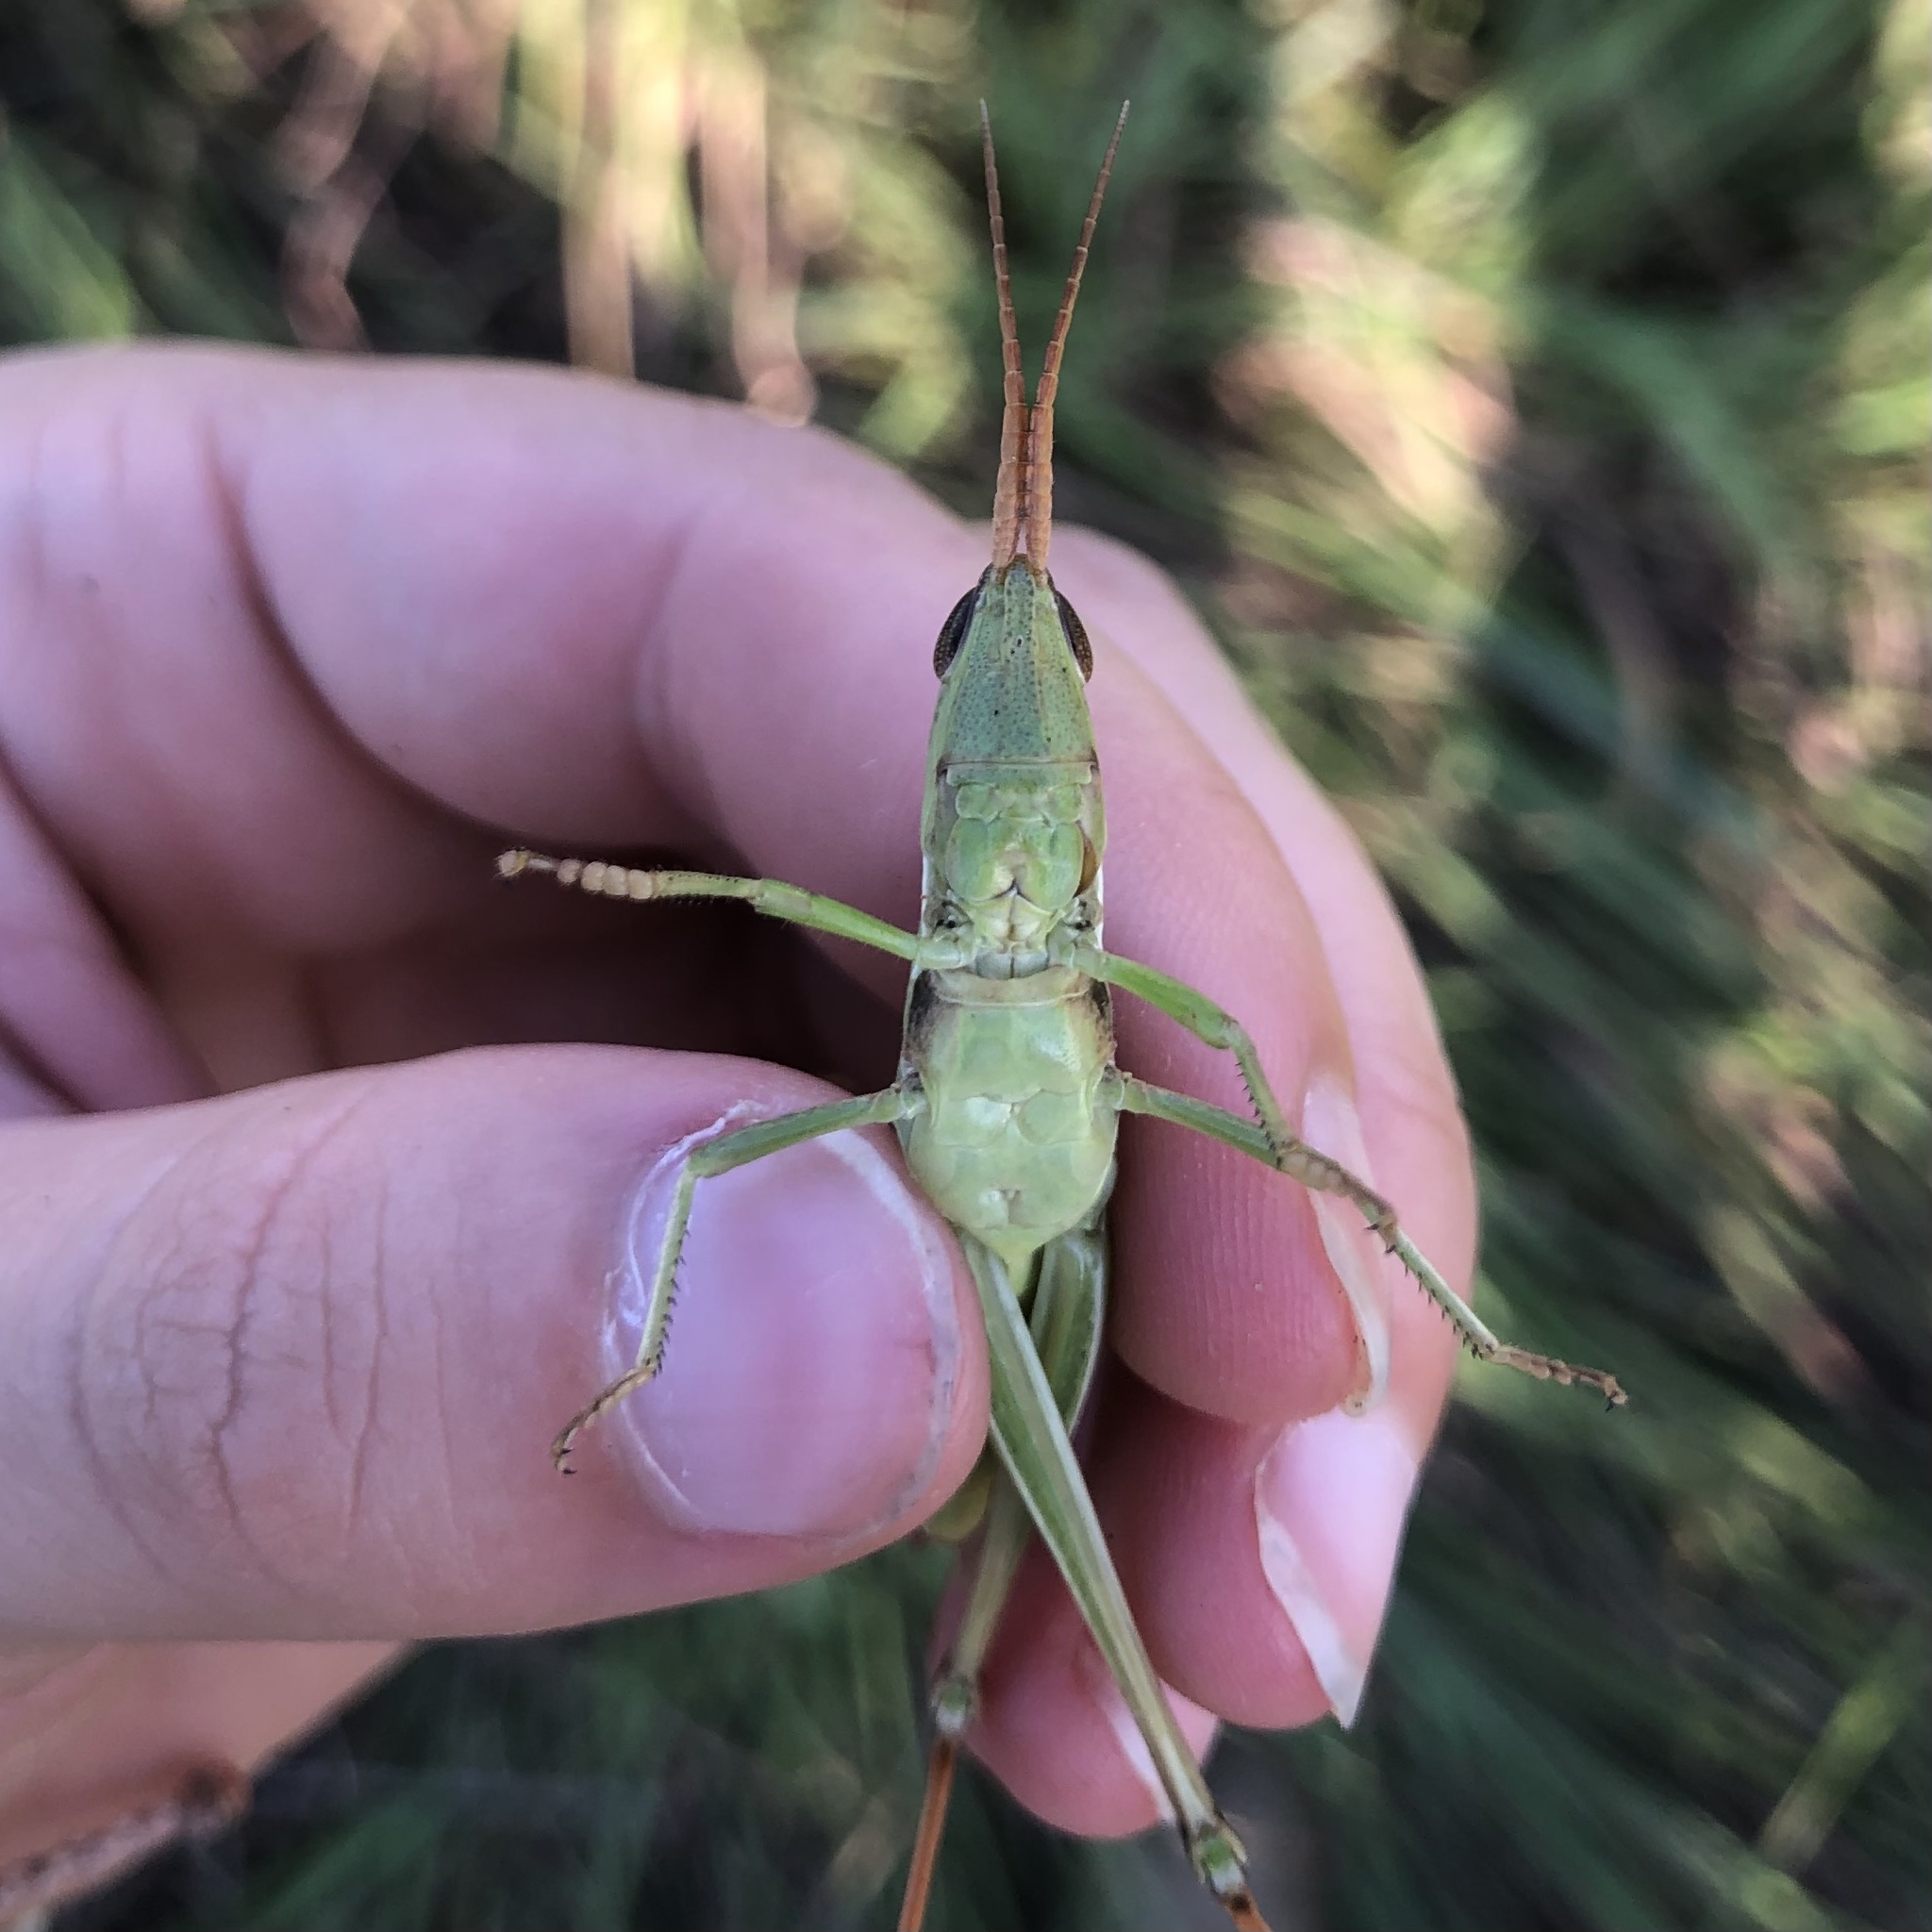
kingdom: Animalia
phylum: Arthropoda
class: Insecta
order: Orthoptera
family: Acrididae
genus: Mermiria
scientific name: Mermiria bivittata
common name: Two-striped mermiria grasshopper
